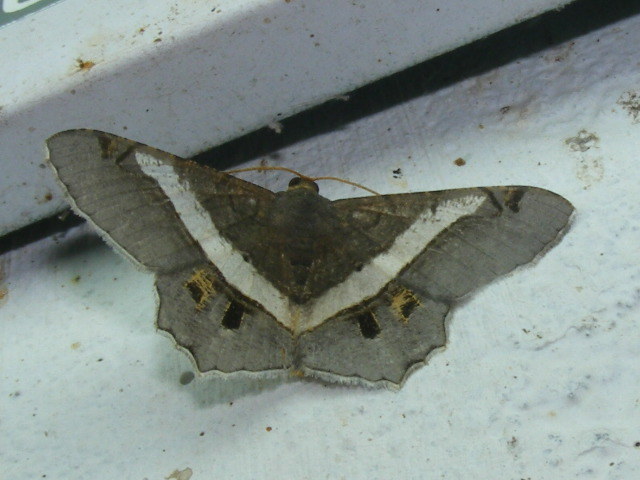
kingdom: Animalia
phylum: Arthropoda
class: Insecta
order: Lepidoptera
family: Geometridae
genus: Chiasmia
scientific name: Chiasmia eleonora
